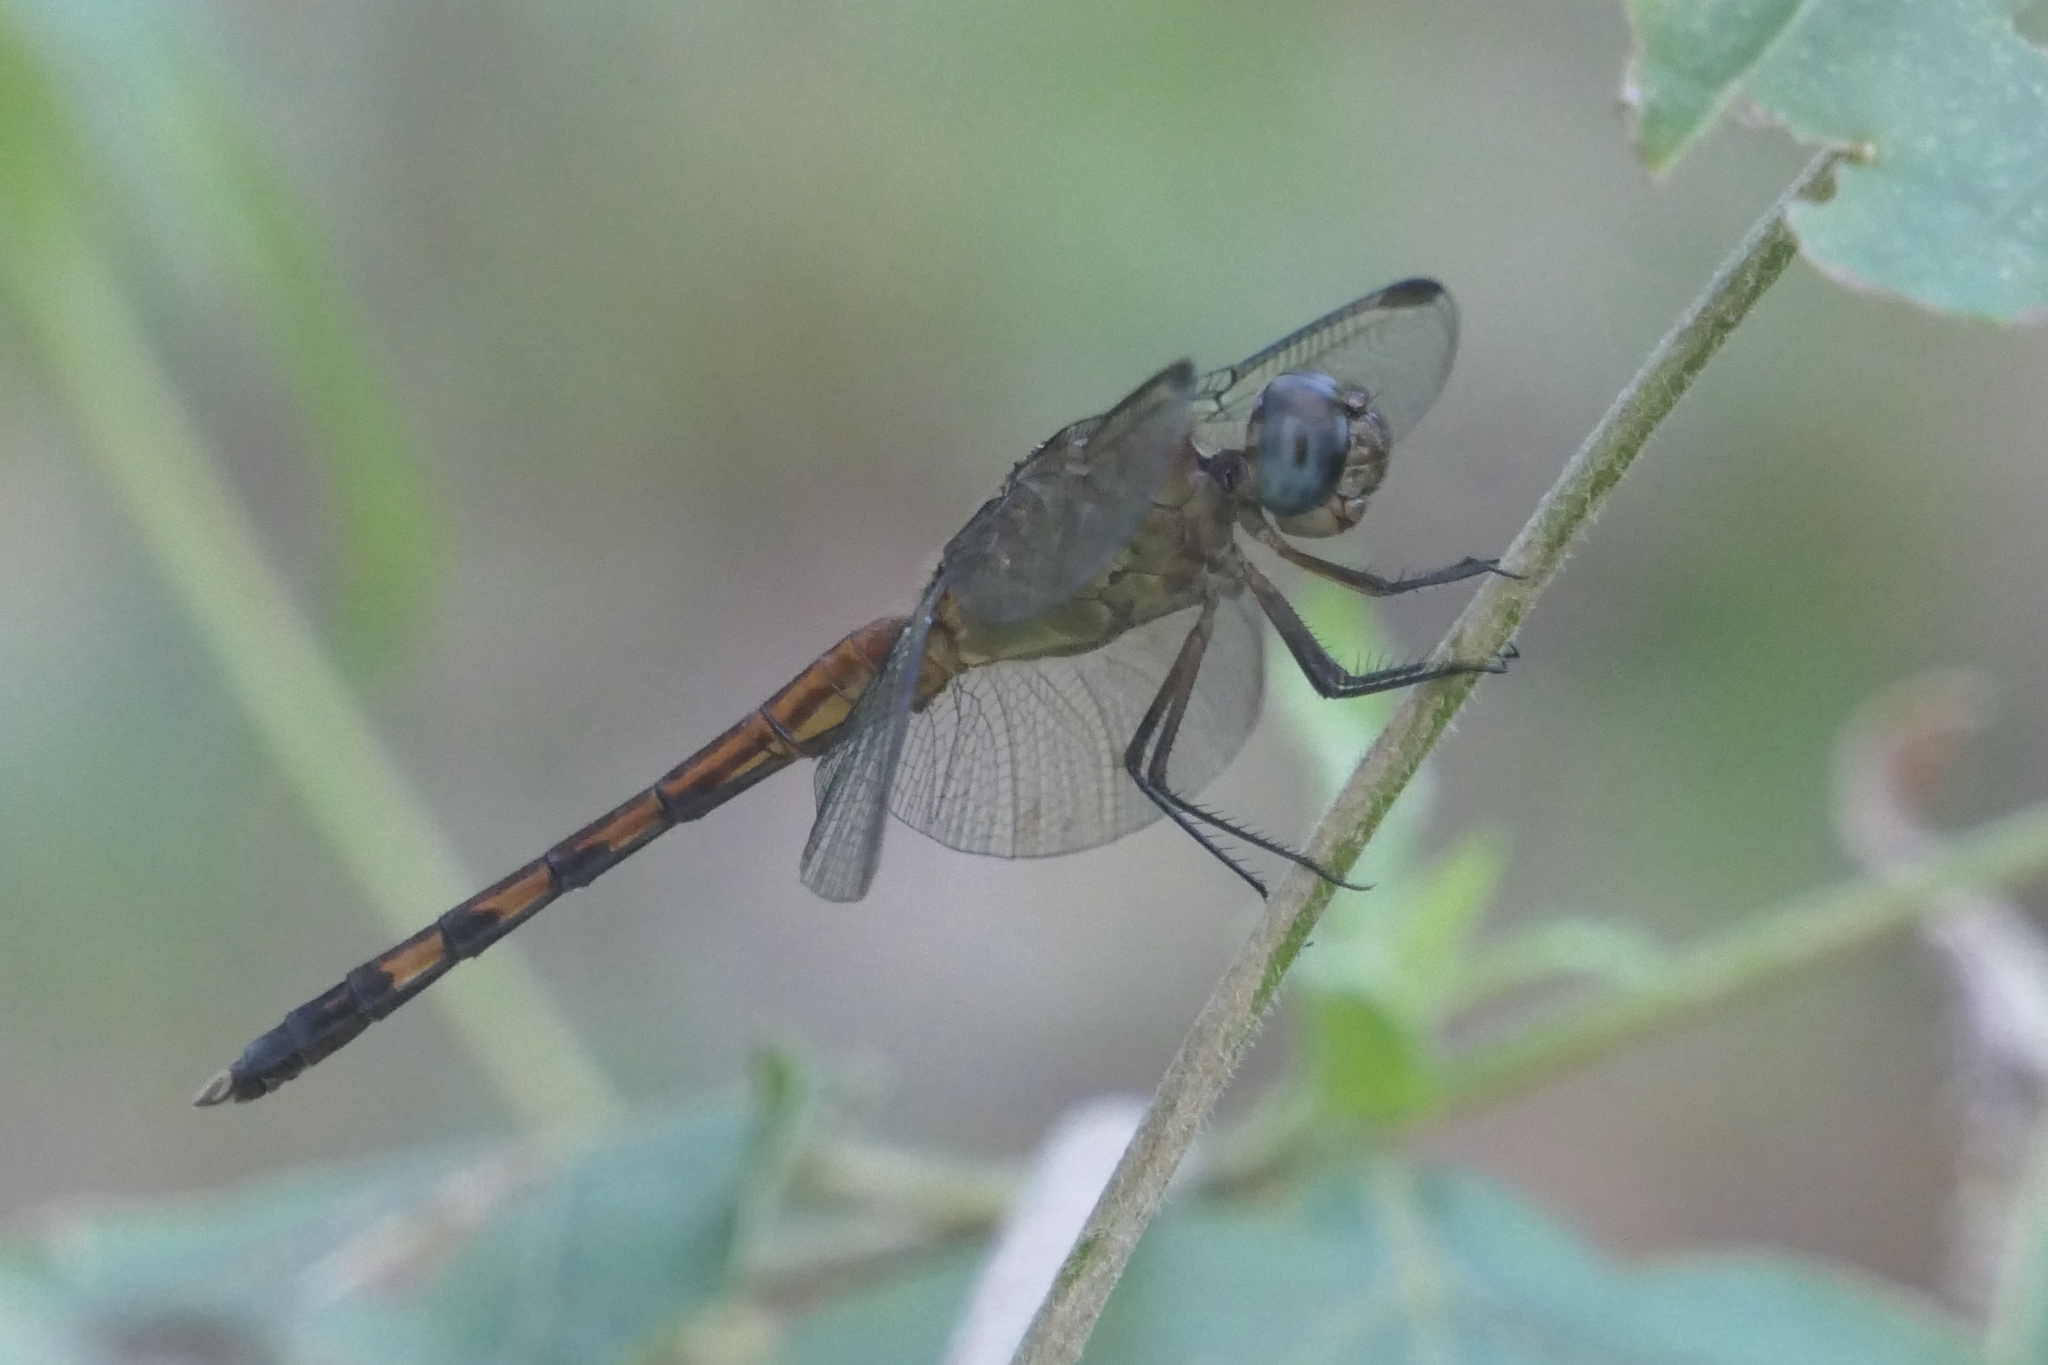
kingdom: Animalia
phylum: Arthropoda
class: Insecta
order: Odonata
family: Libellulidae
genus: Erythrodiplax
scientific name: Erythrodiplax umbrata
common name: Band-winged dragonlet
